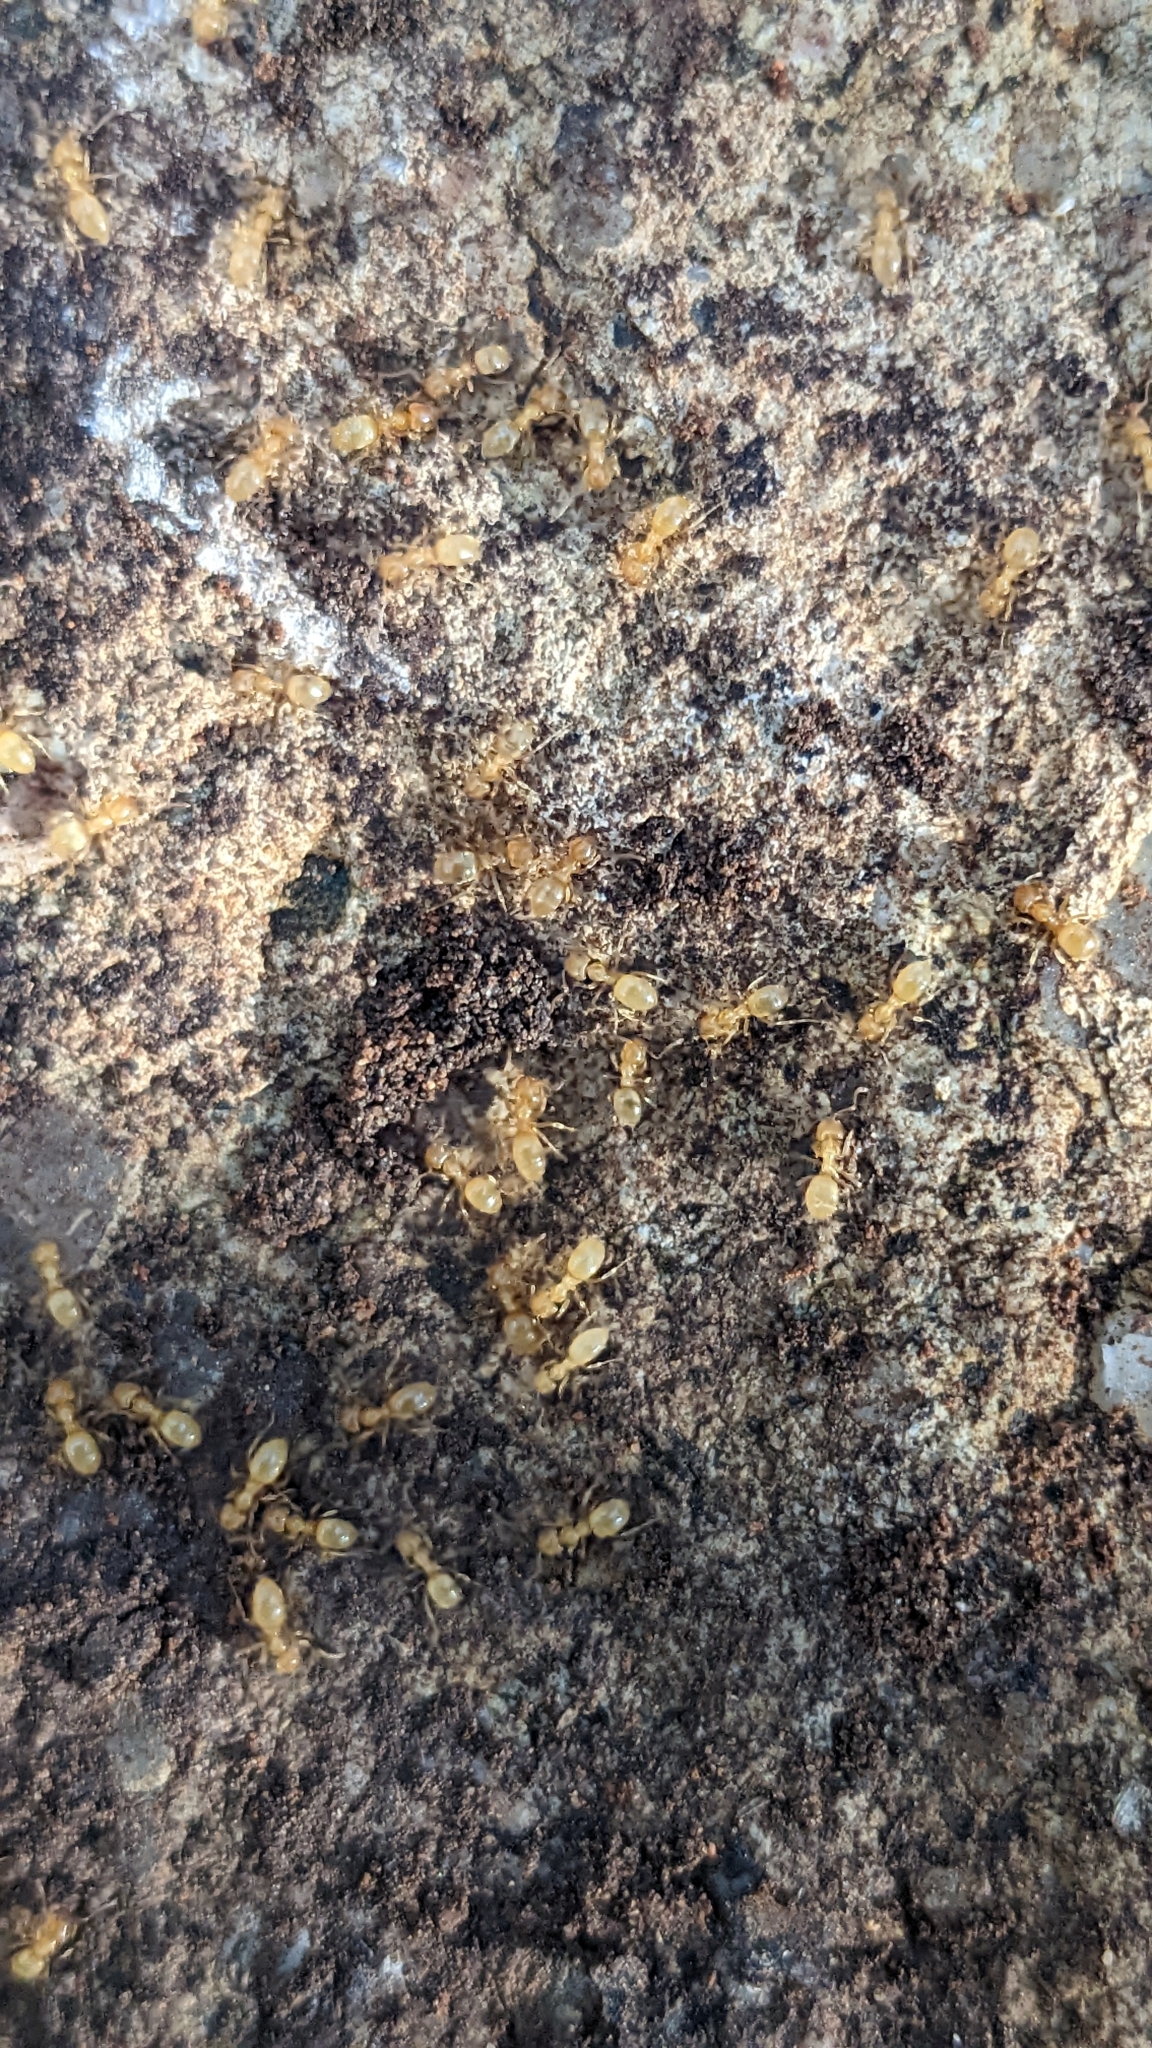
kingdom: Animalia
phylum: Arthropoda
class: Insecta
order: Hymenoptera
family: Formicidae
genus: Lasius
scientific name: Lasius myops
